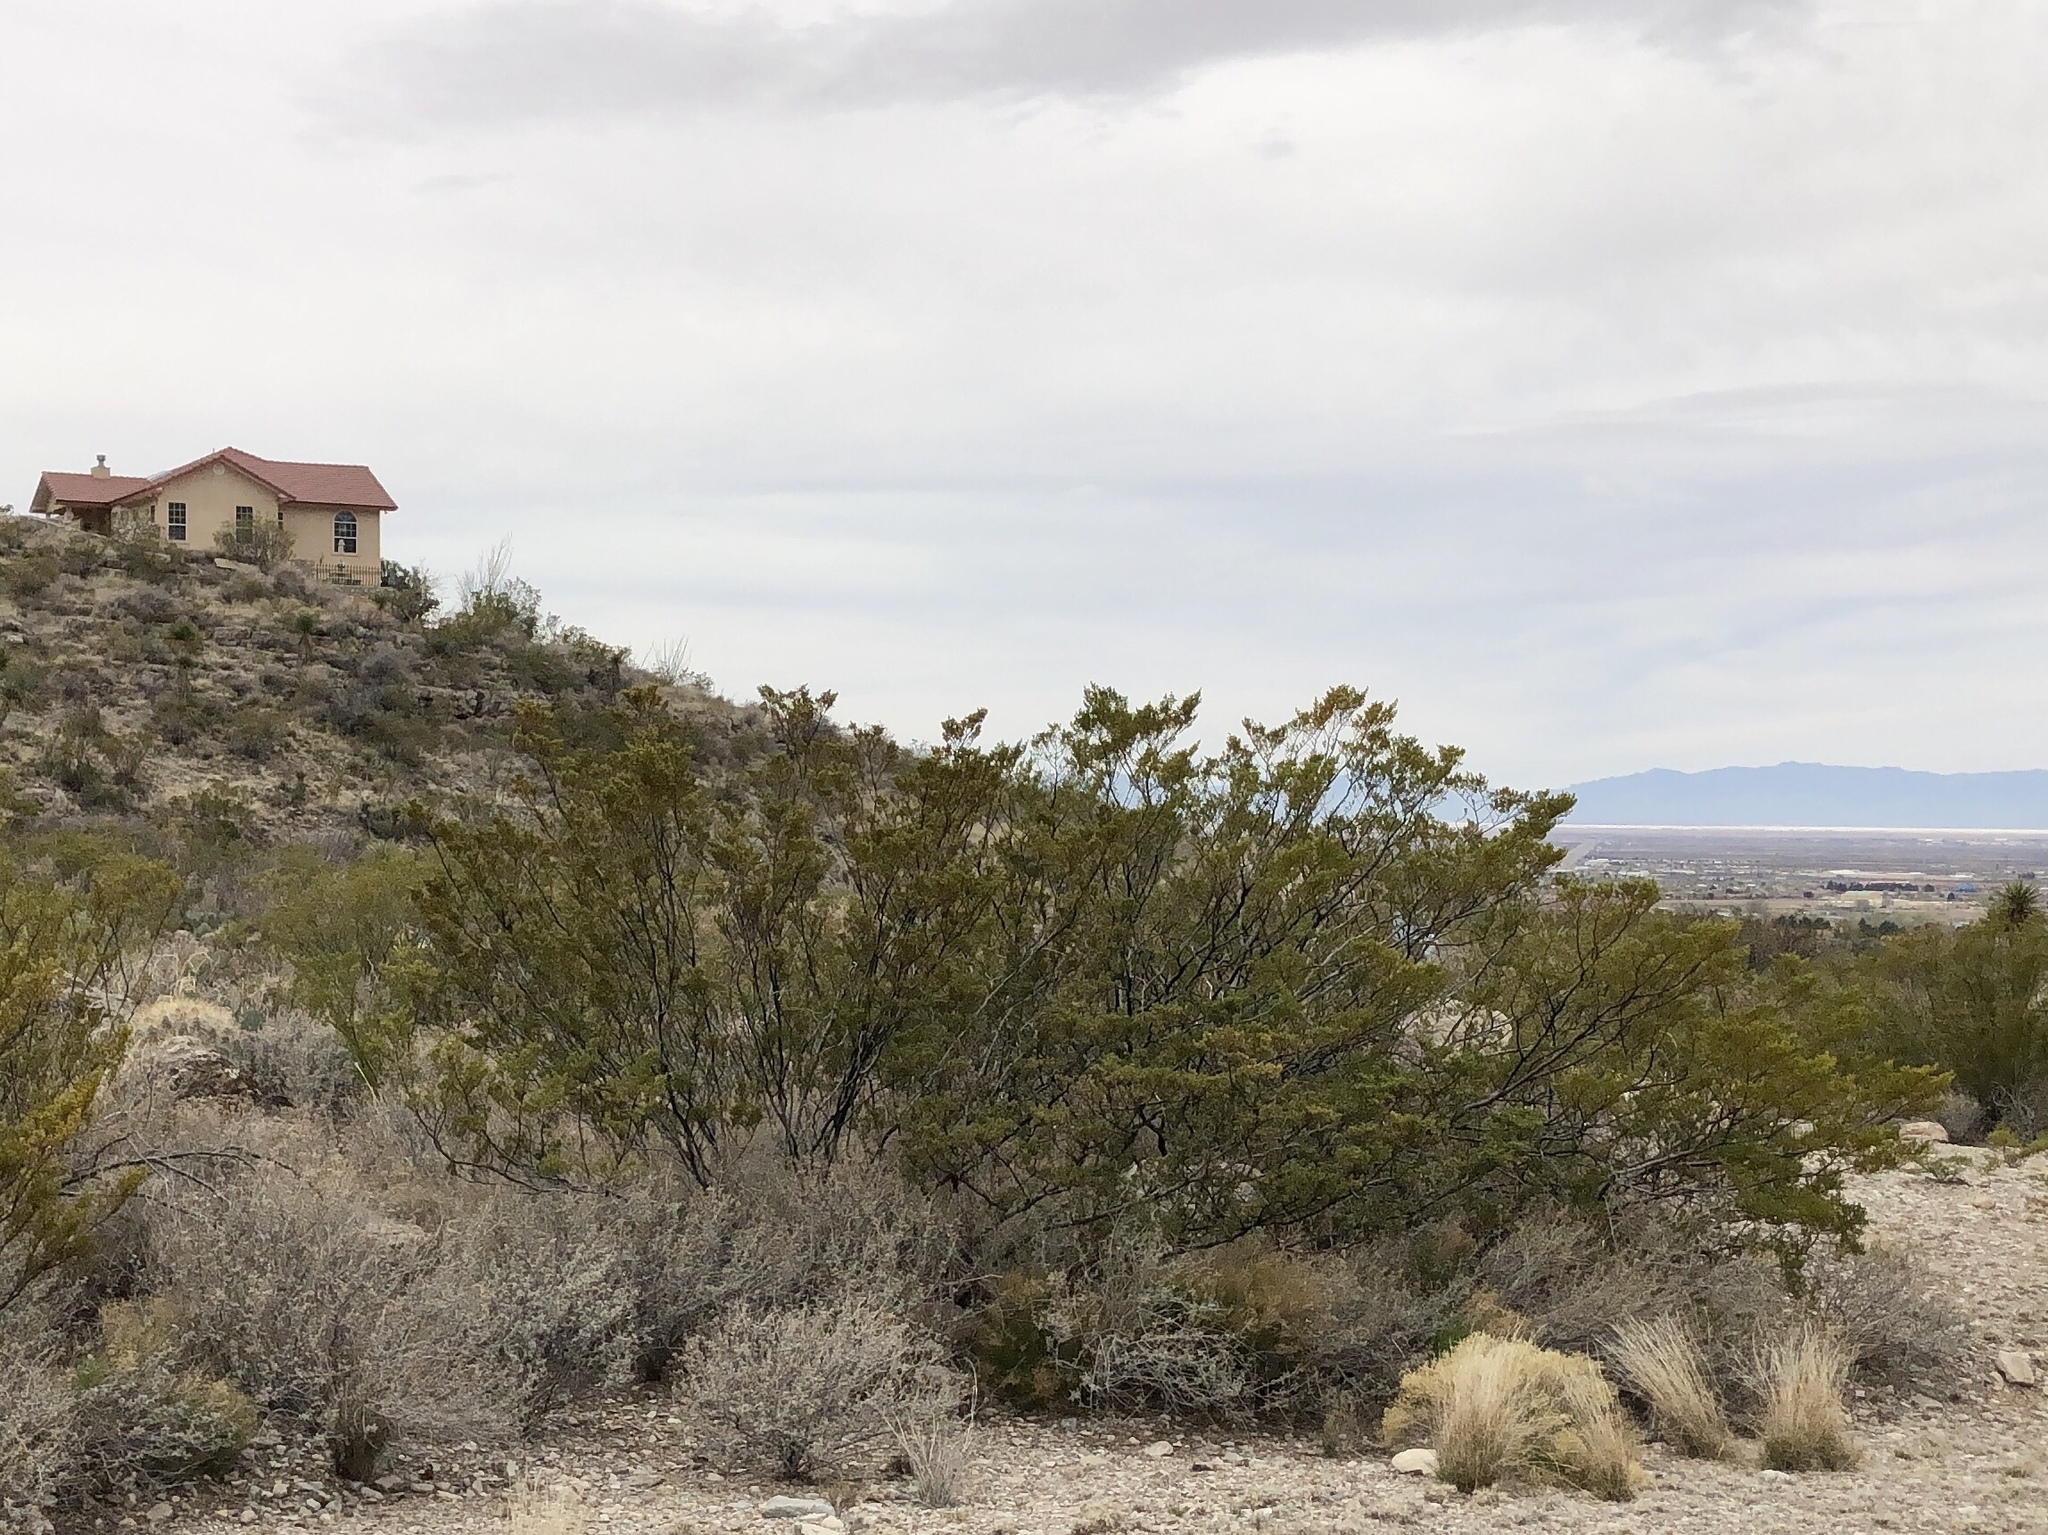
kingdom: Plantae
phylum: Tracheophyta
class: Magnoliopsida
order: Zygophyllales
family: Zygophyllaceae
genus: Larrea
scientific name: Larrea tridentata
